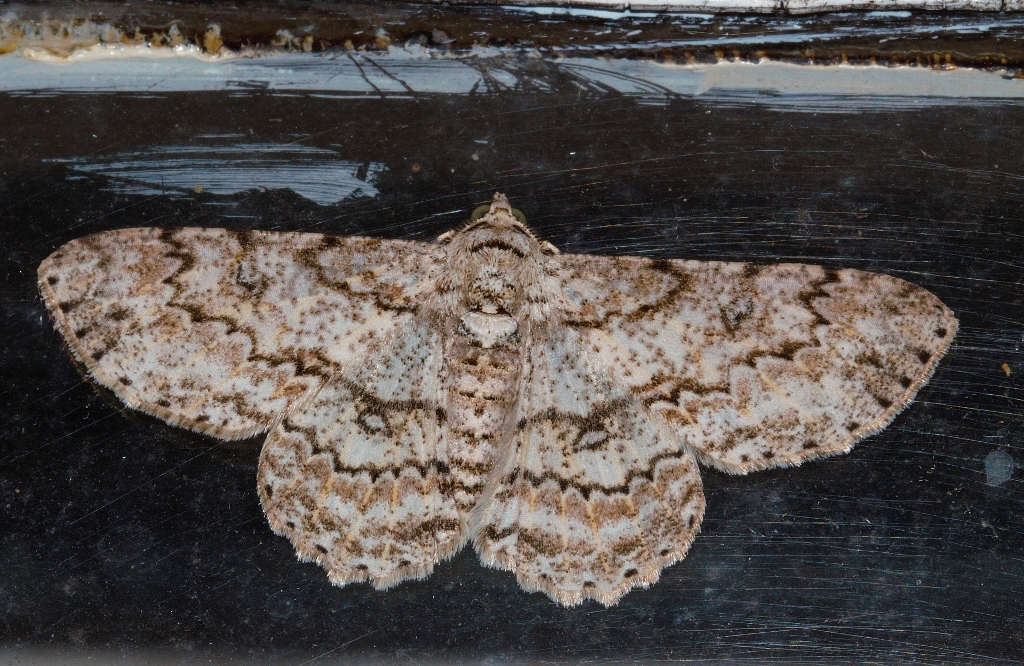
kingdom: Animalia
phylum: Arthropoda
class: Insecta
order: Lepidoptera
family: Geometridae
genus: Ascotis
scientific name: Ascotis reciprocaria
